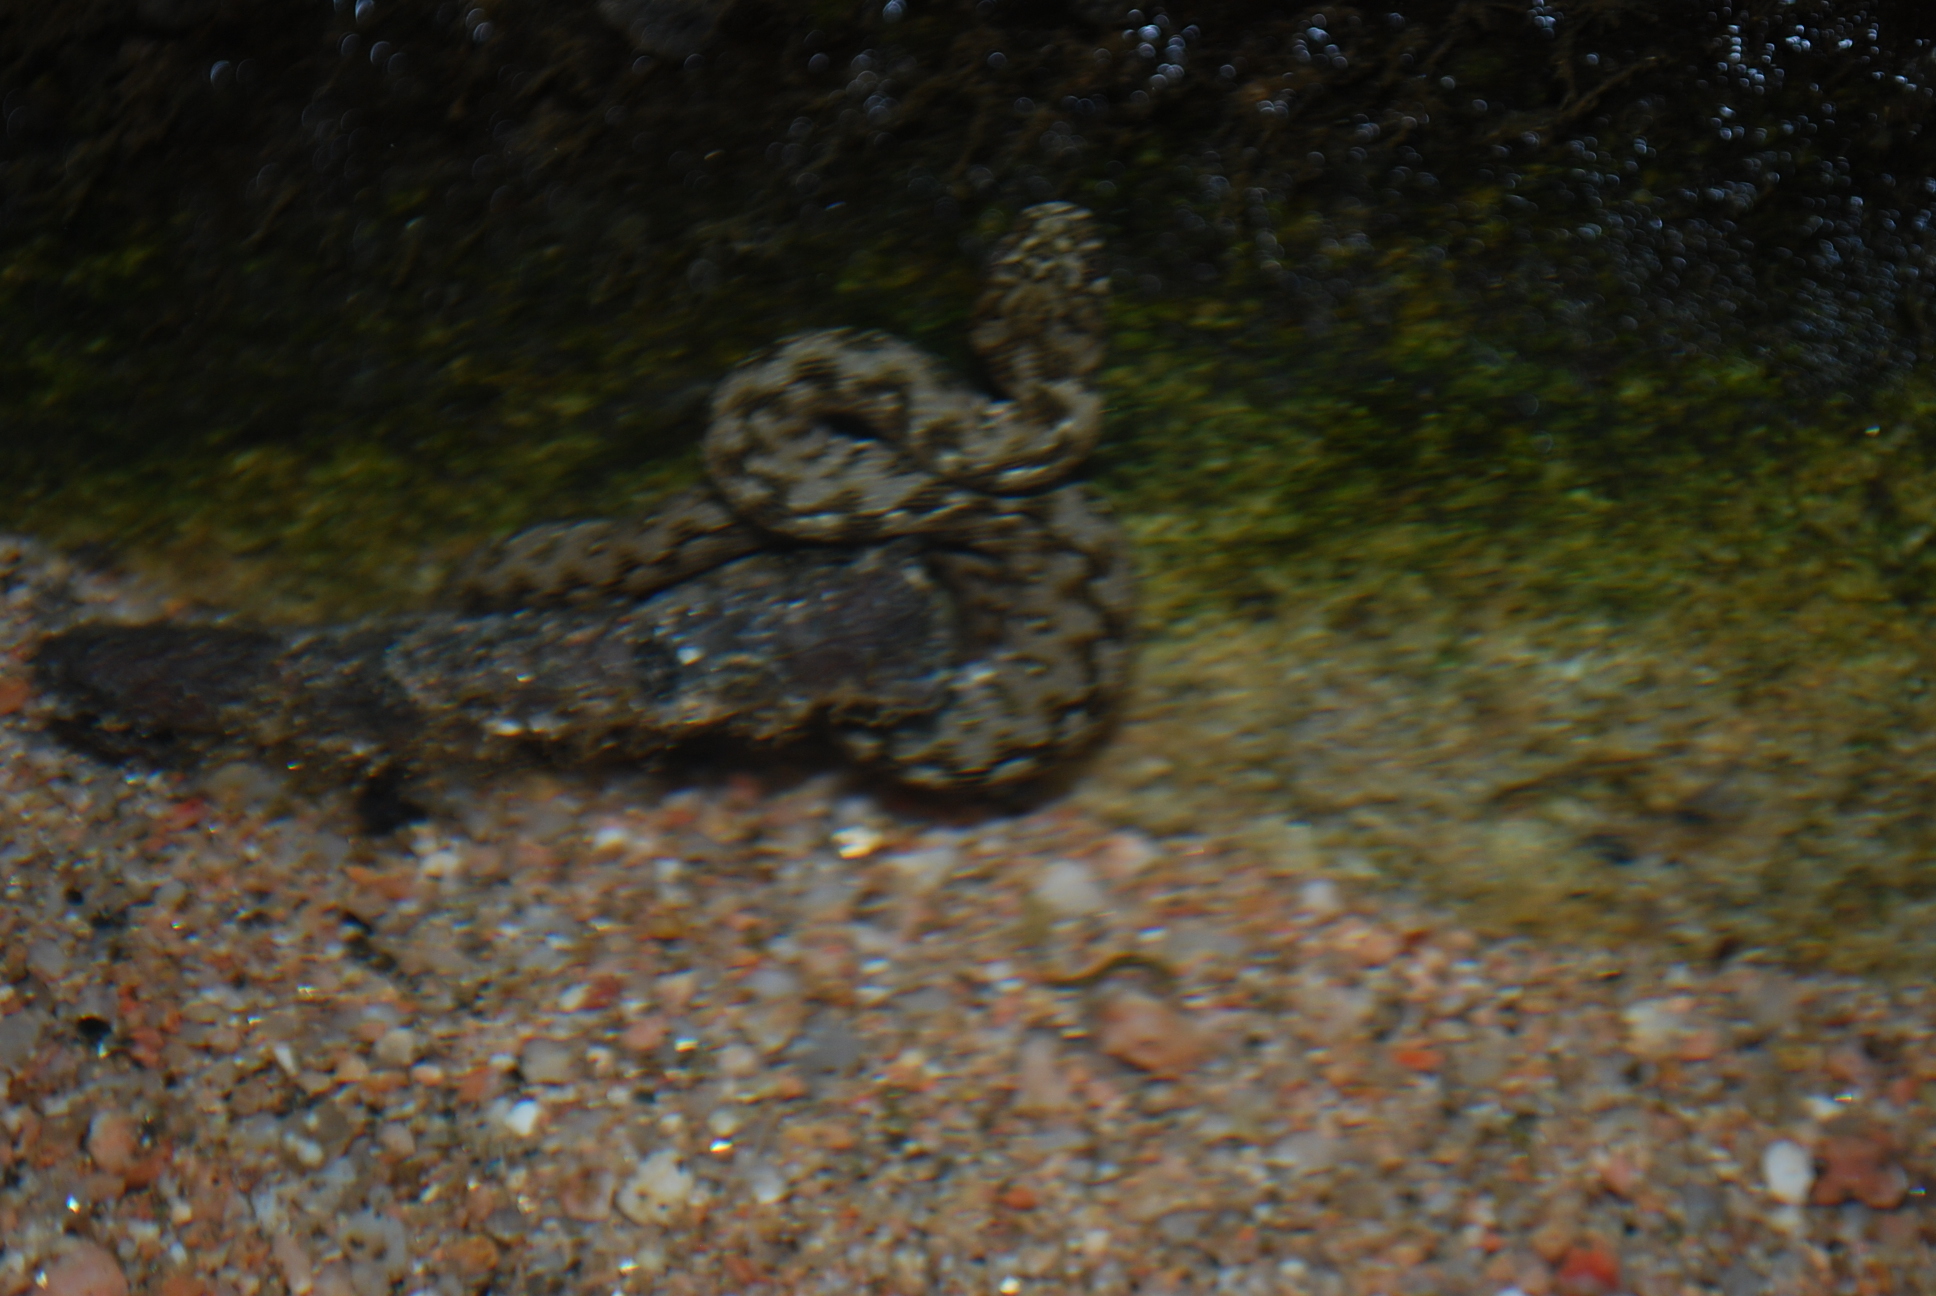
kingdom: Animalia
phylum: Chordata
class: Squamata
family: Colubridae
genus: Natrix
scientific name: Natrix maura
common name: Viperine water snake
